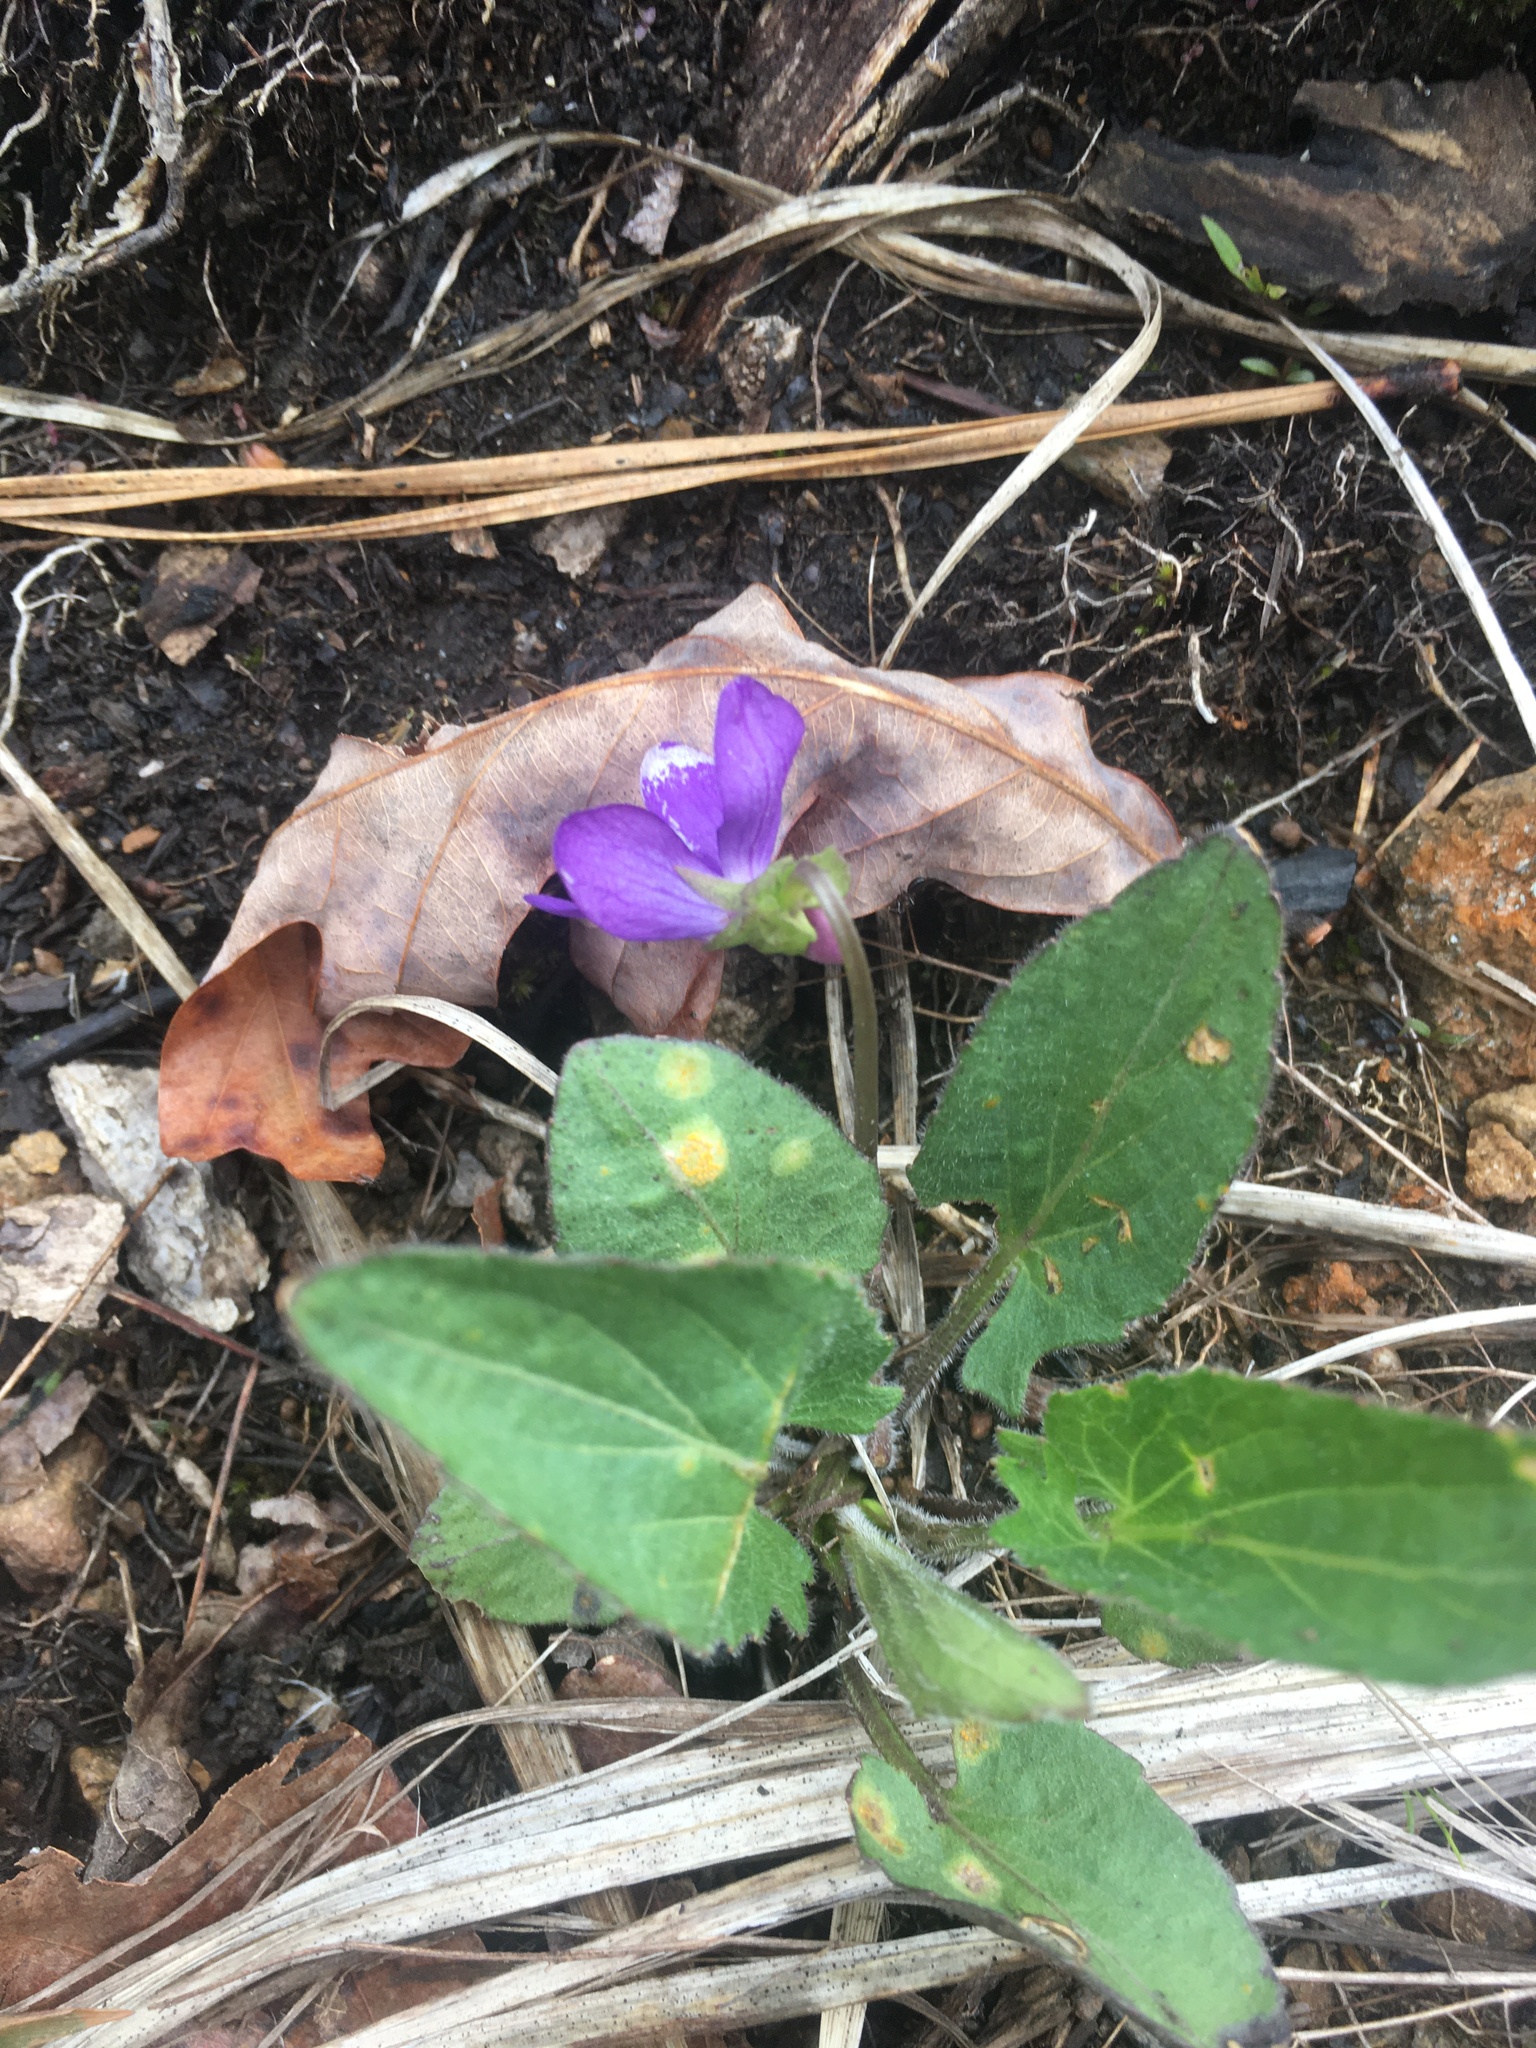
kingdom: Plantae
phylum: Tracheophyta
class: Magnoliopsida
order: Malpighiales
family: Violaceae
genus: Viola
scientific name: Viola sagittata
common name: Arrowhead violet
